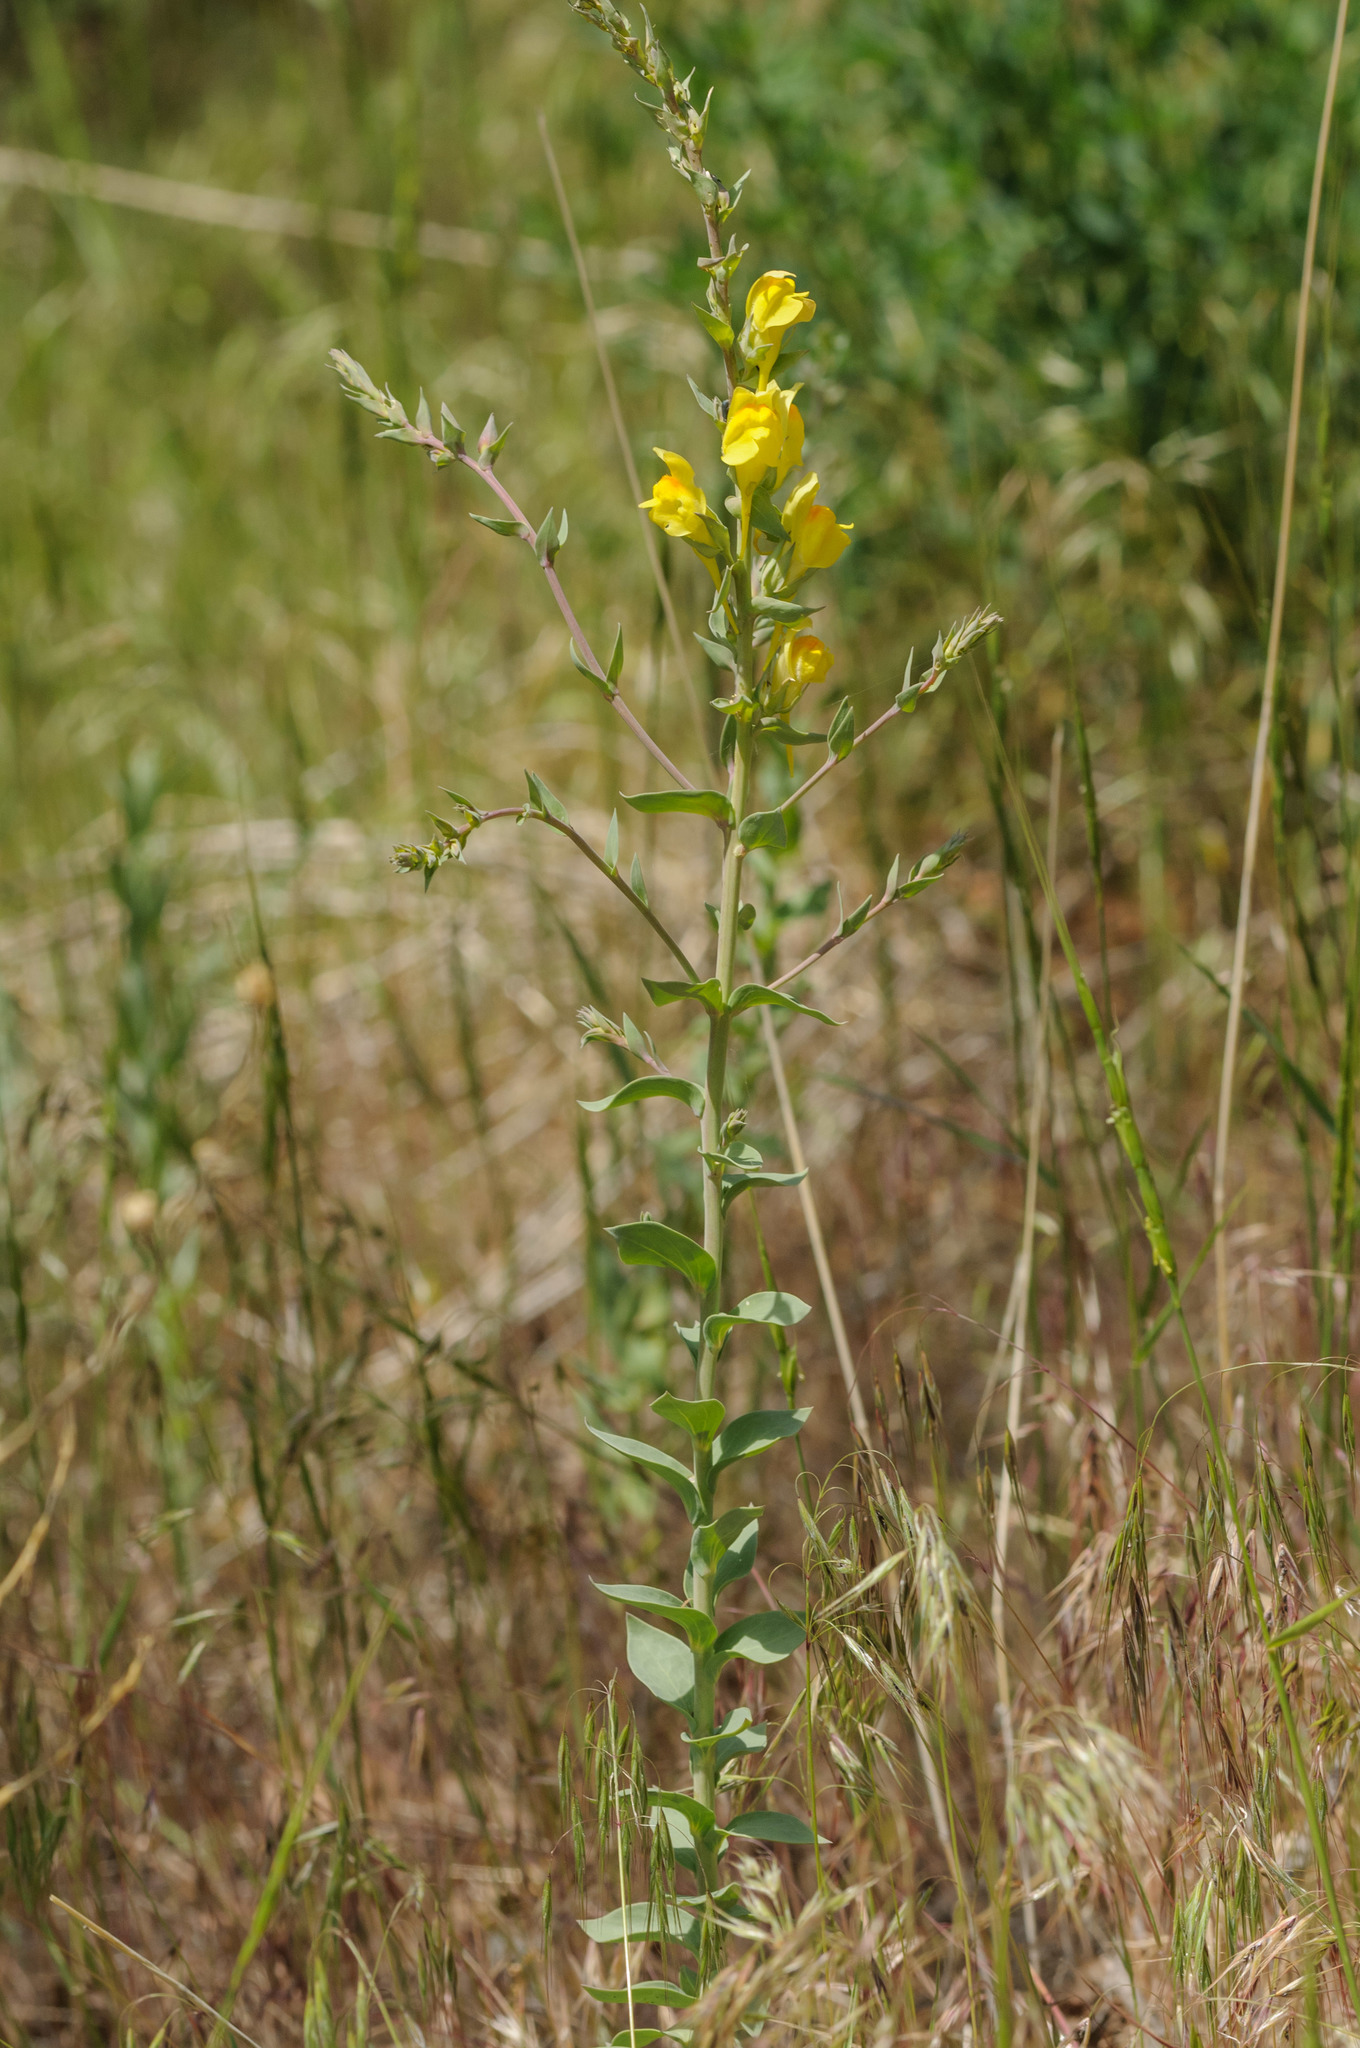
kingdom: Plantae
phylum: Tracheophyta
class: Magnoliopsida
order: Lamiales
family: Plantaginaceae
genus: Linaria
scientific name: Linaria dalmatica
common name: Dalmatian toadflax
